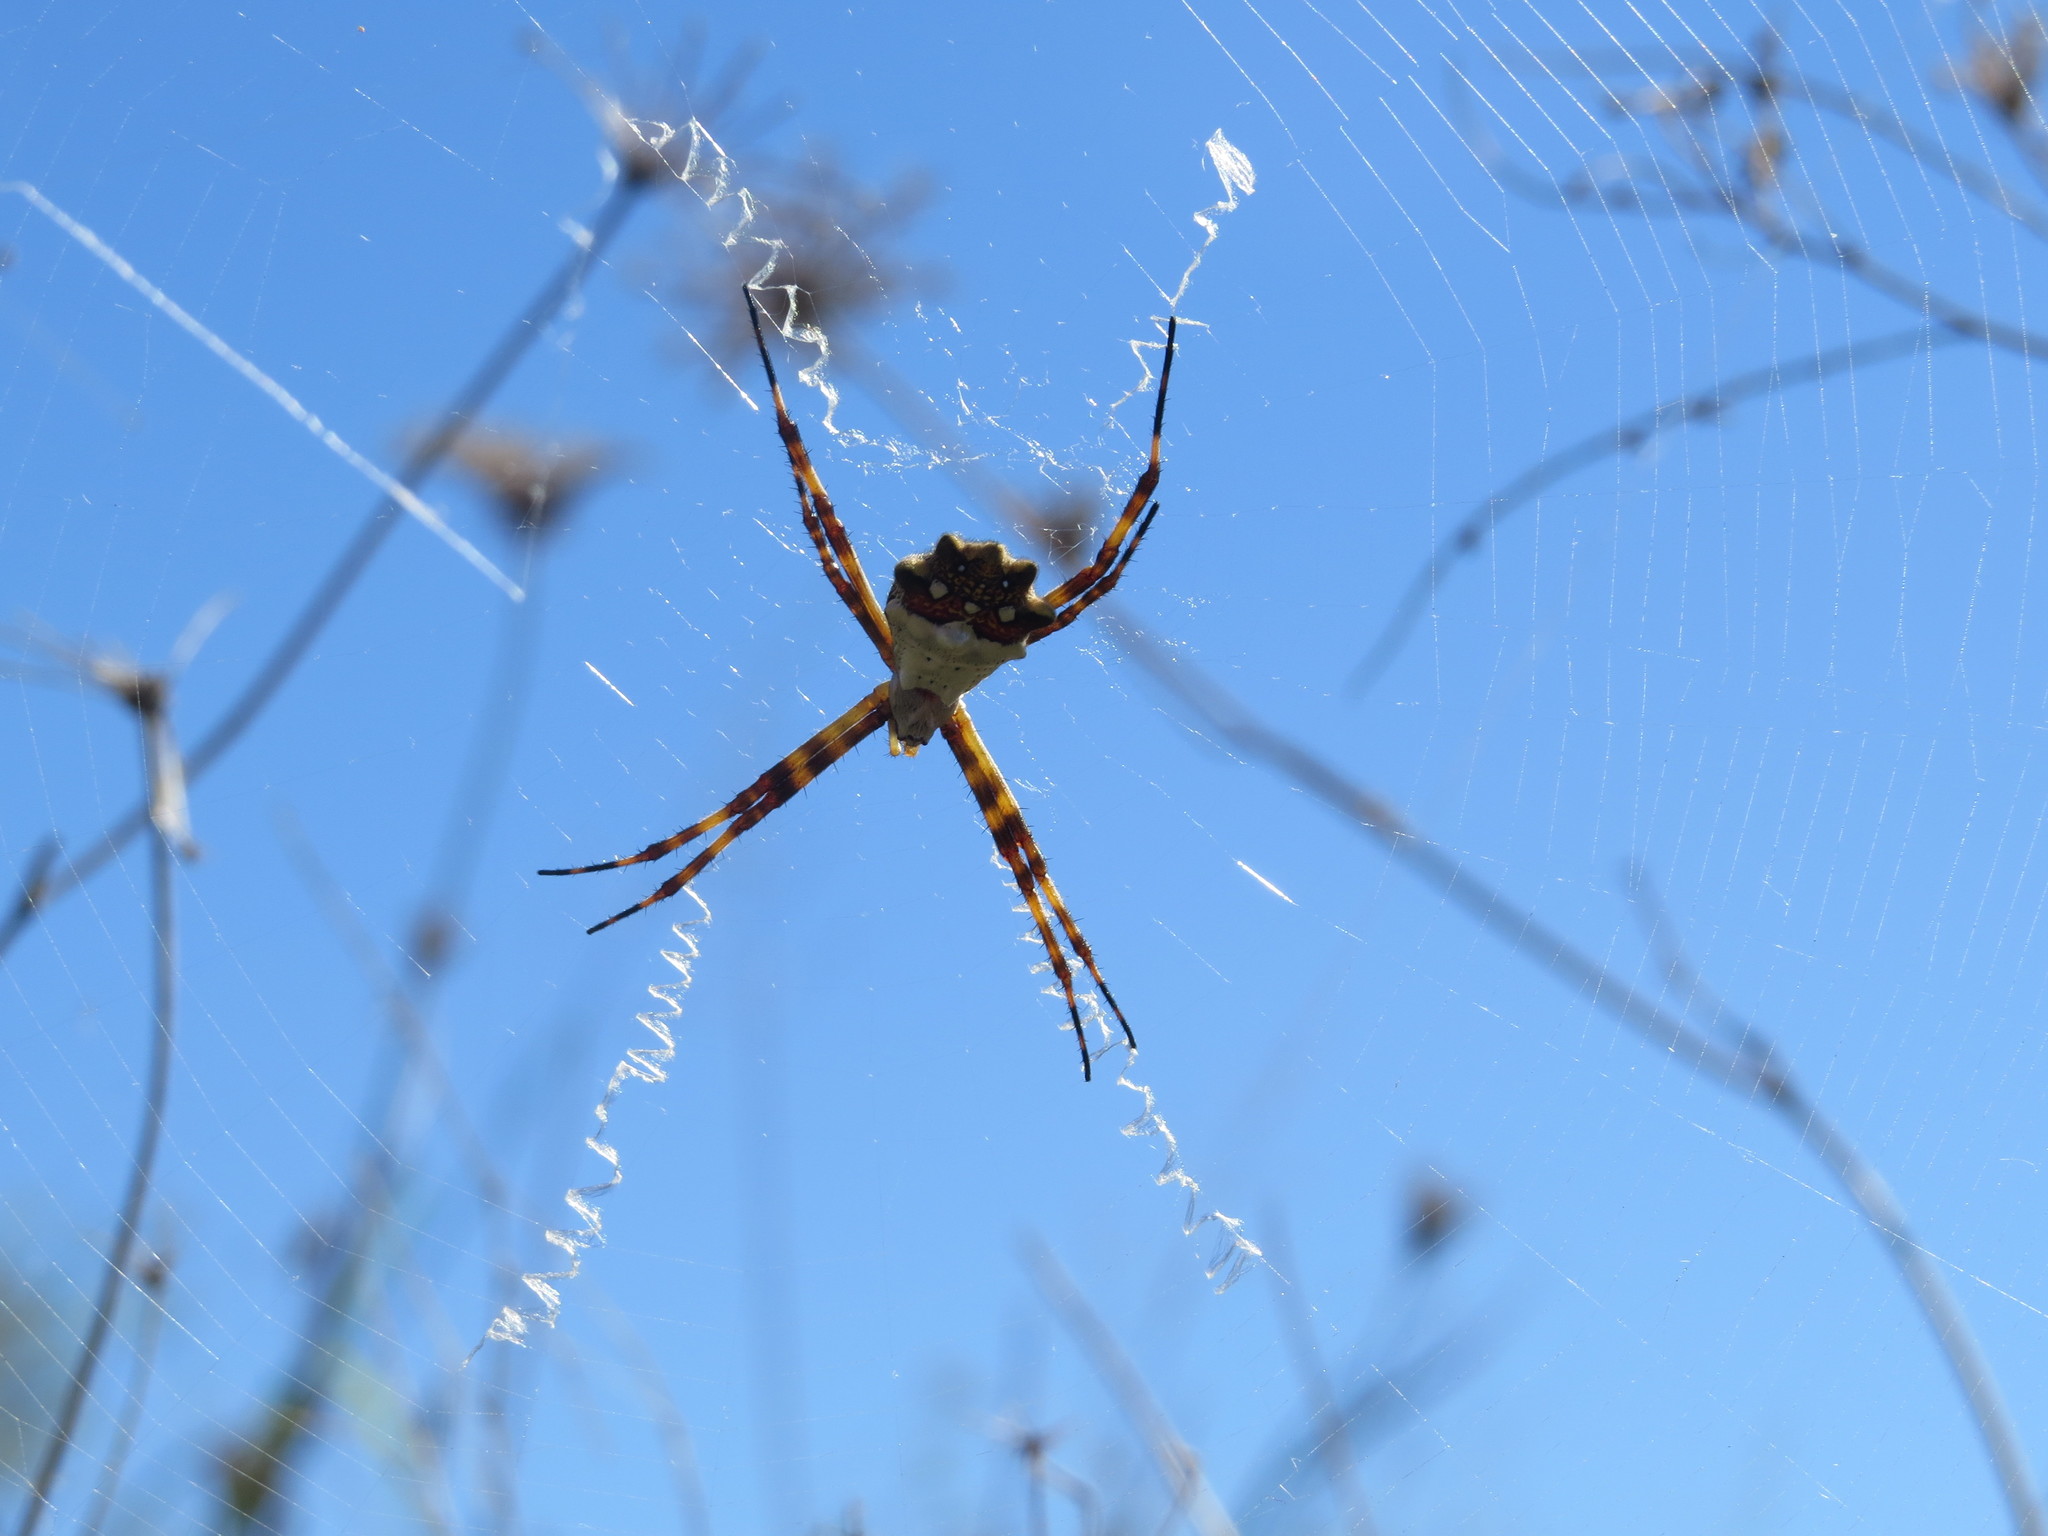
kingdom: Animalia
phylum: Arthropoda
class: Arachnida
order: Araneae
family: Araneidae
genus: Argiope
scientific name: Argiope argentata
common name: Orb weavers
